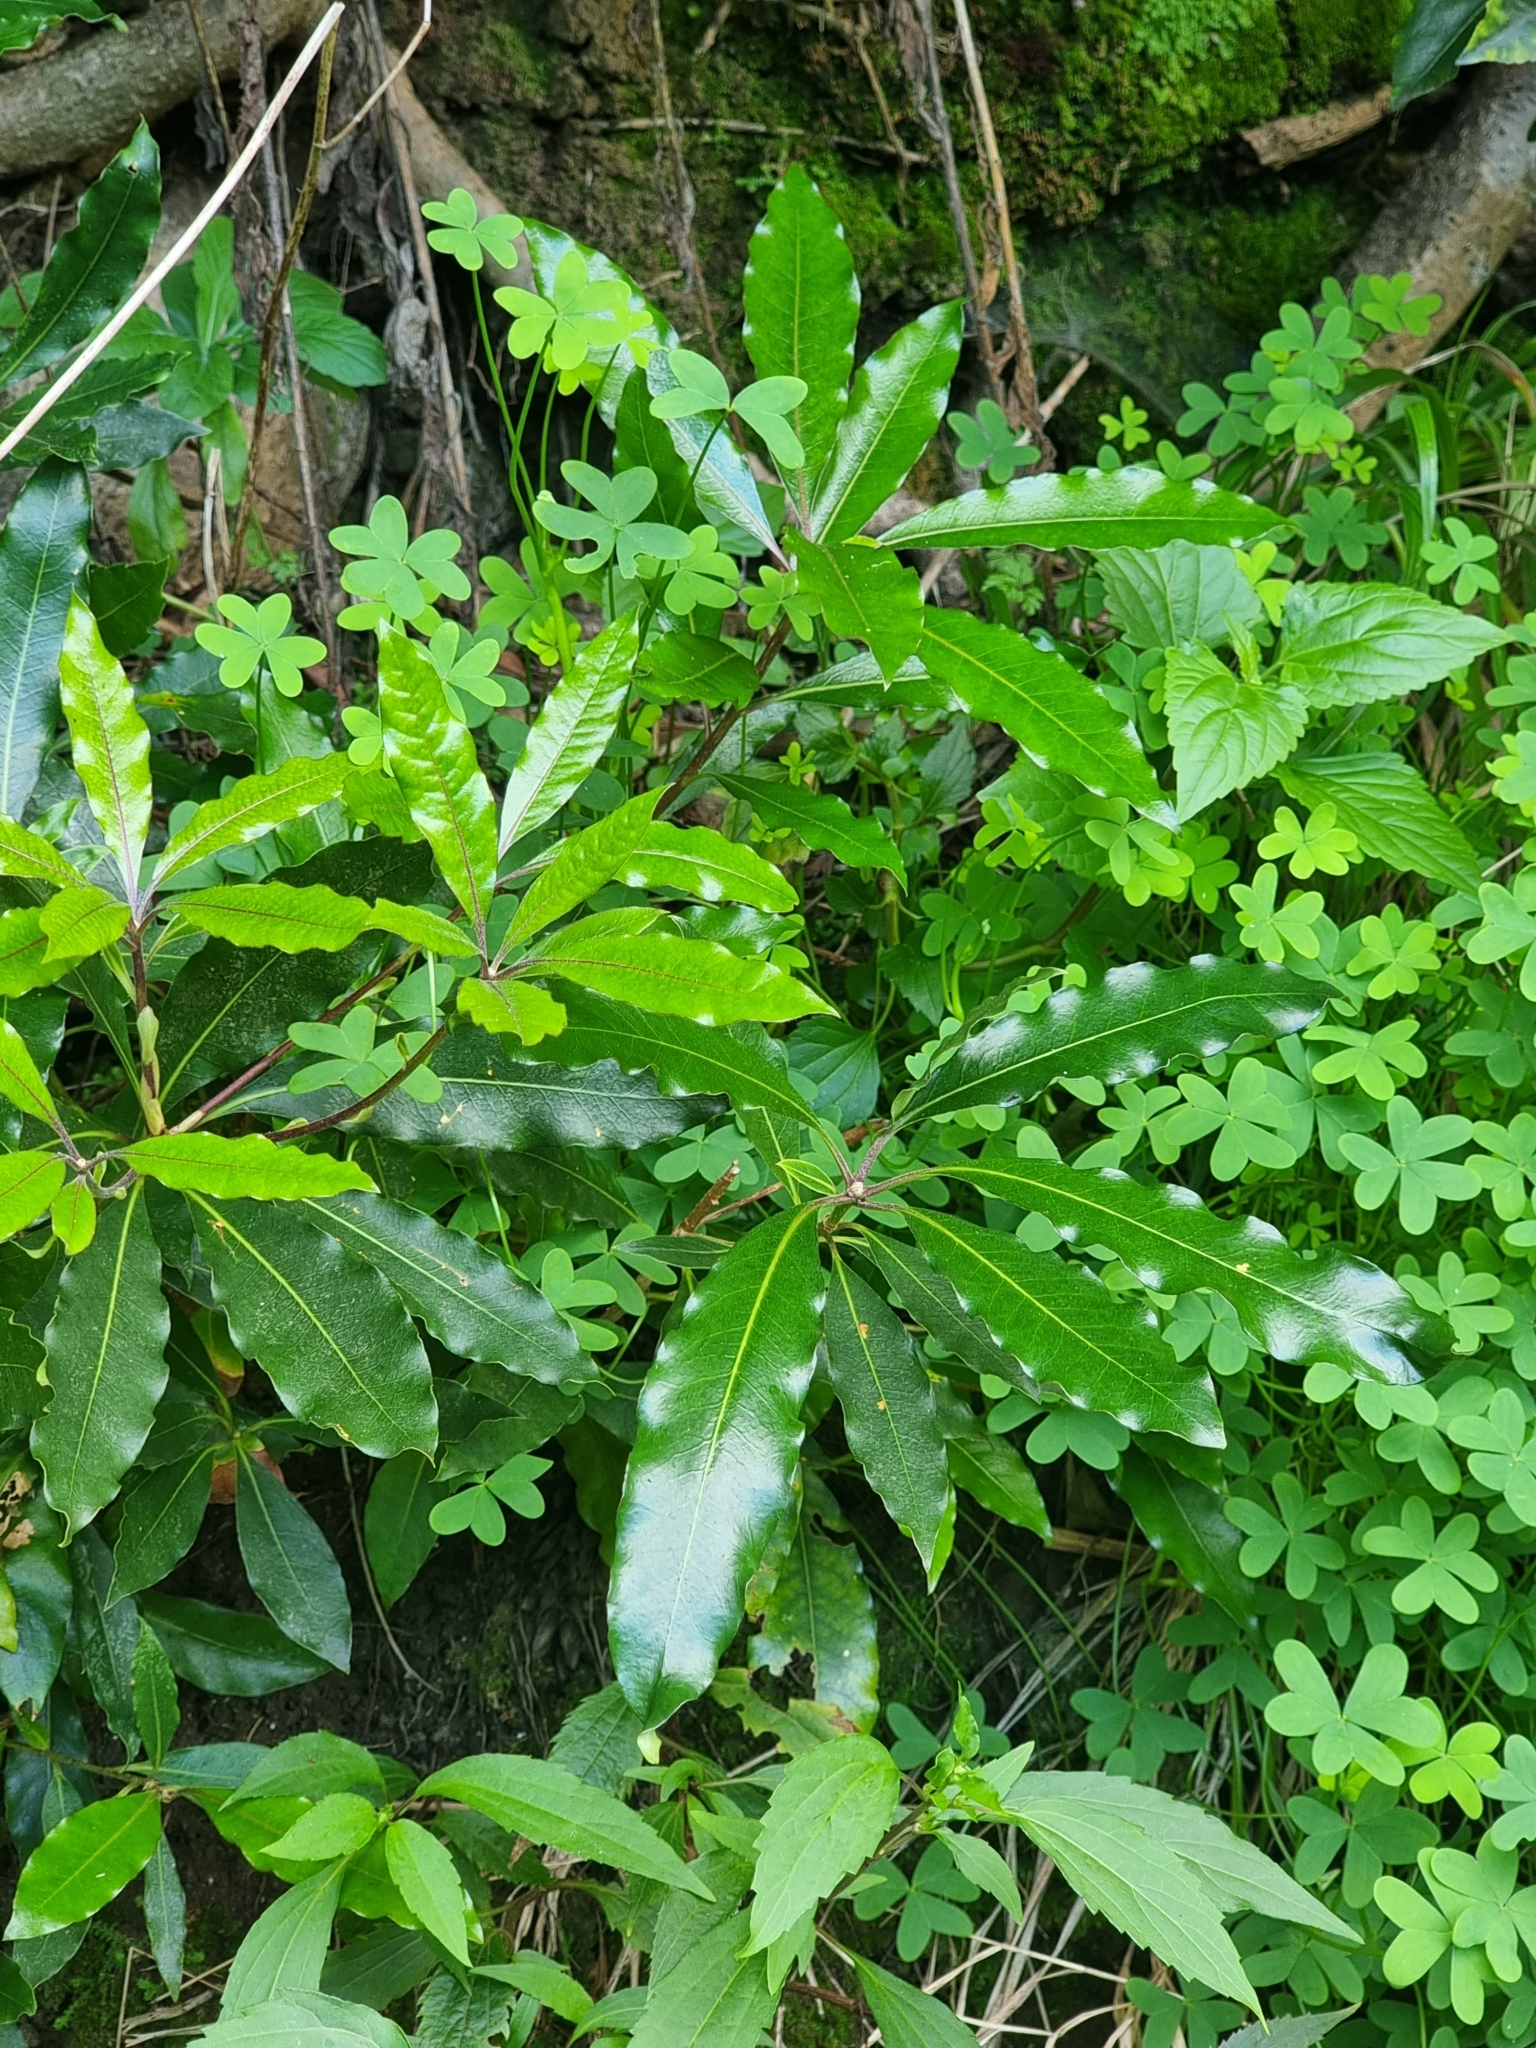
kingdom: Plantae
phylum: Tracheophyta
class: Magnoliopsida
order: Apiales
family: Pittosporaceae
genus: Pittosporum
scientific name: Pittosporum undulatum
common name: Australian cheesewood
